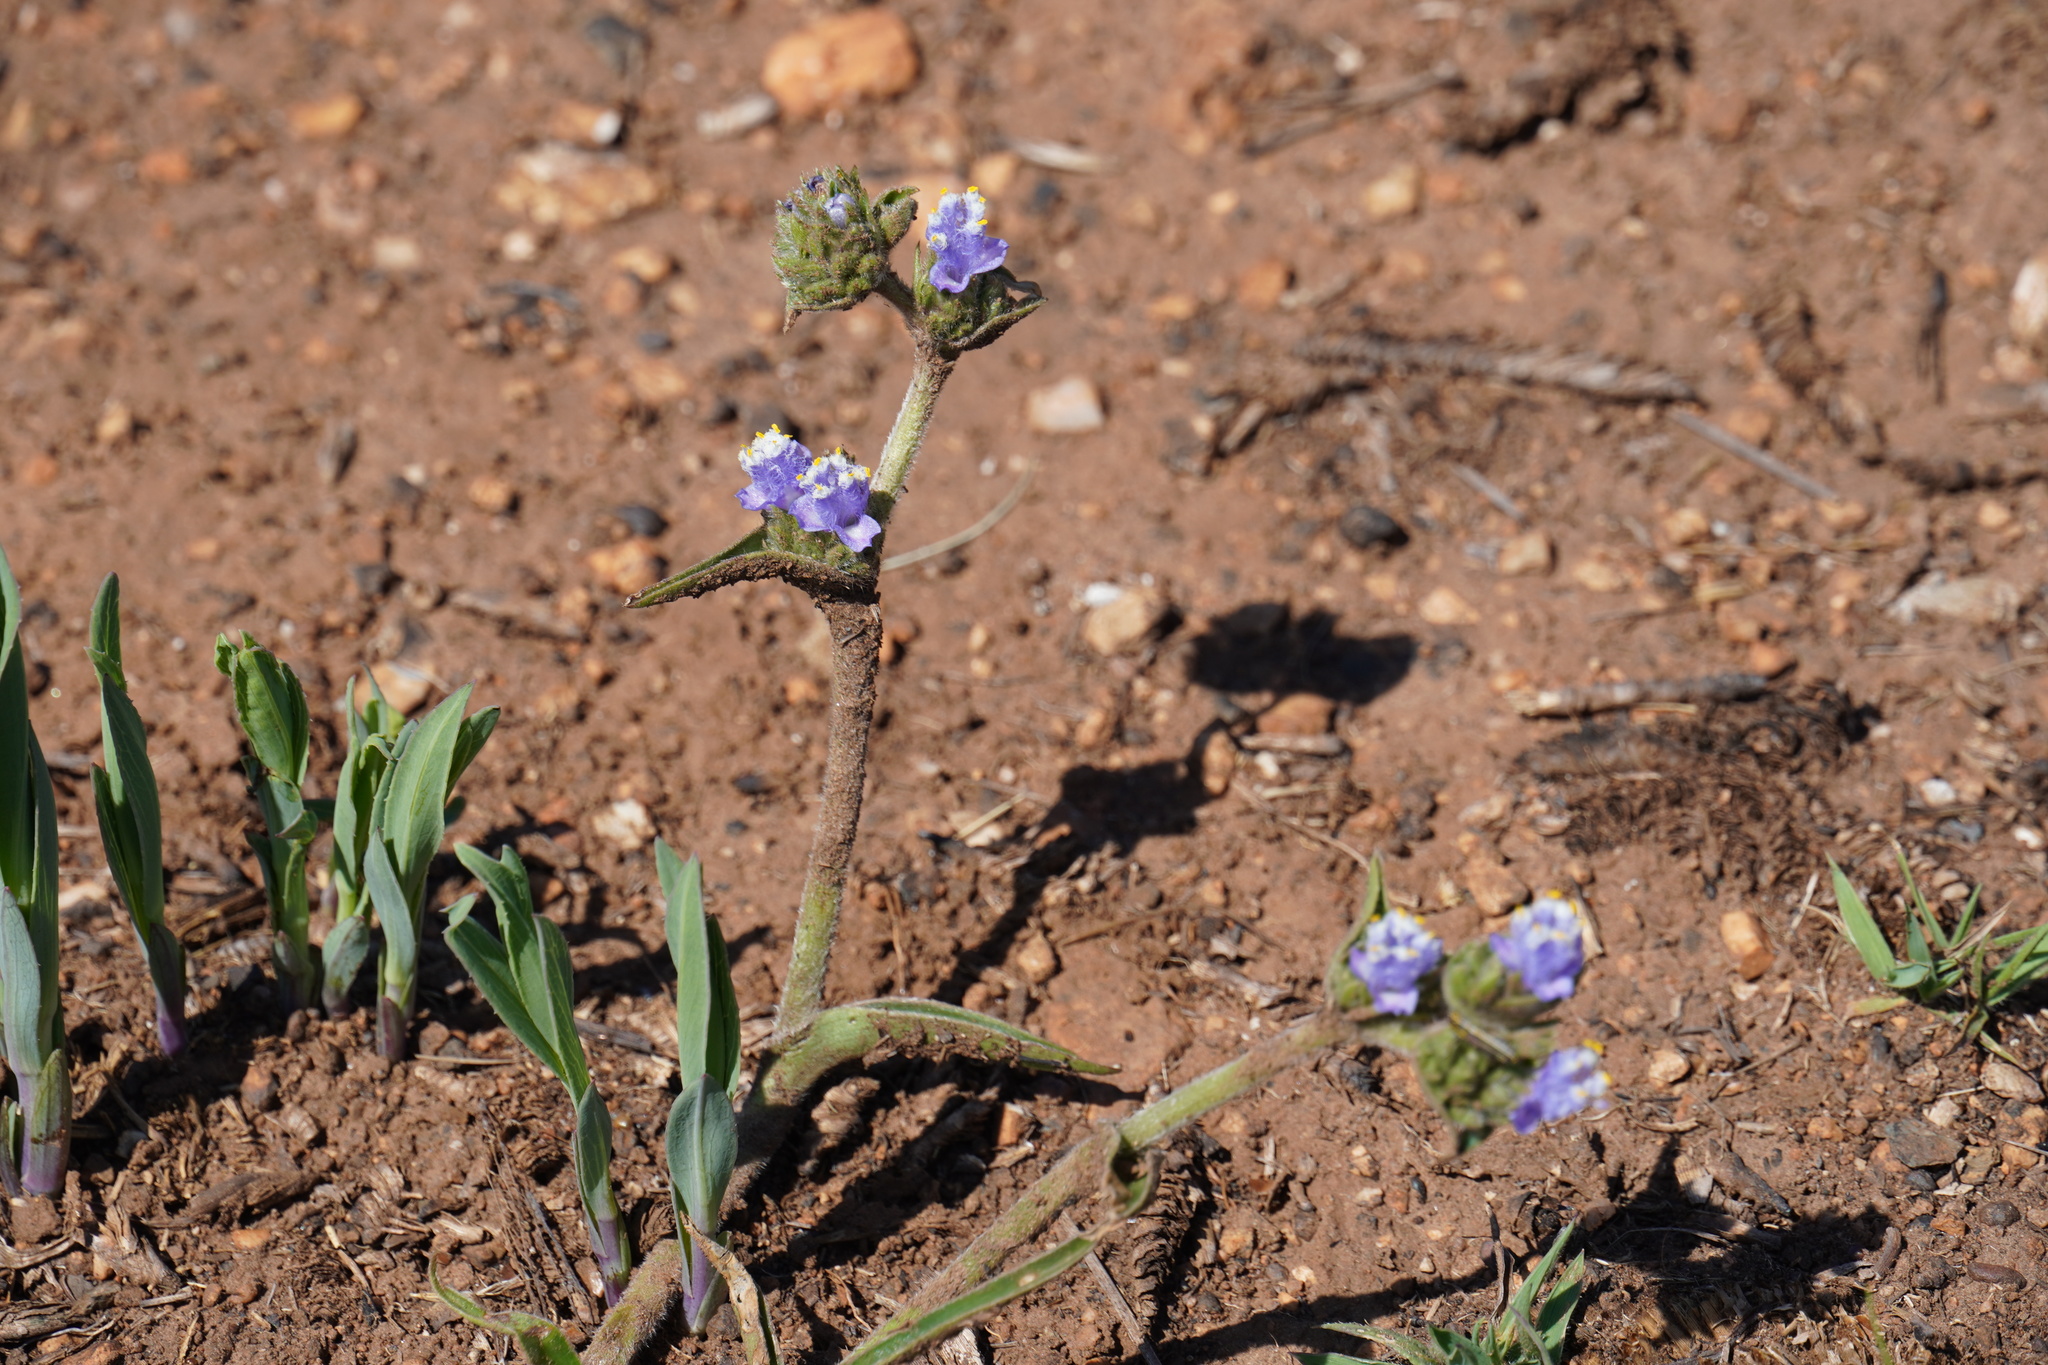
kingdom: Plantae
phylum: Tracheophyta
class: Liliopsida
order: Commelinales
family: Commelinaceae
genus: Cyanotis
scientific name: Cyanotis speciosa
